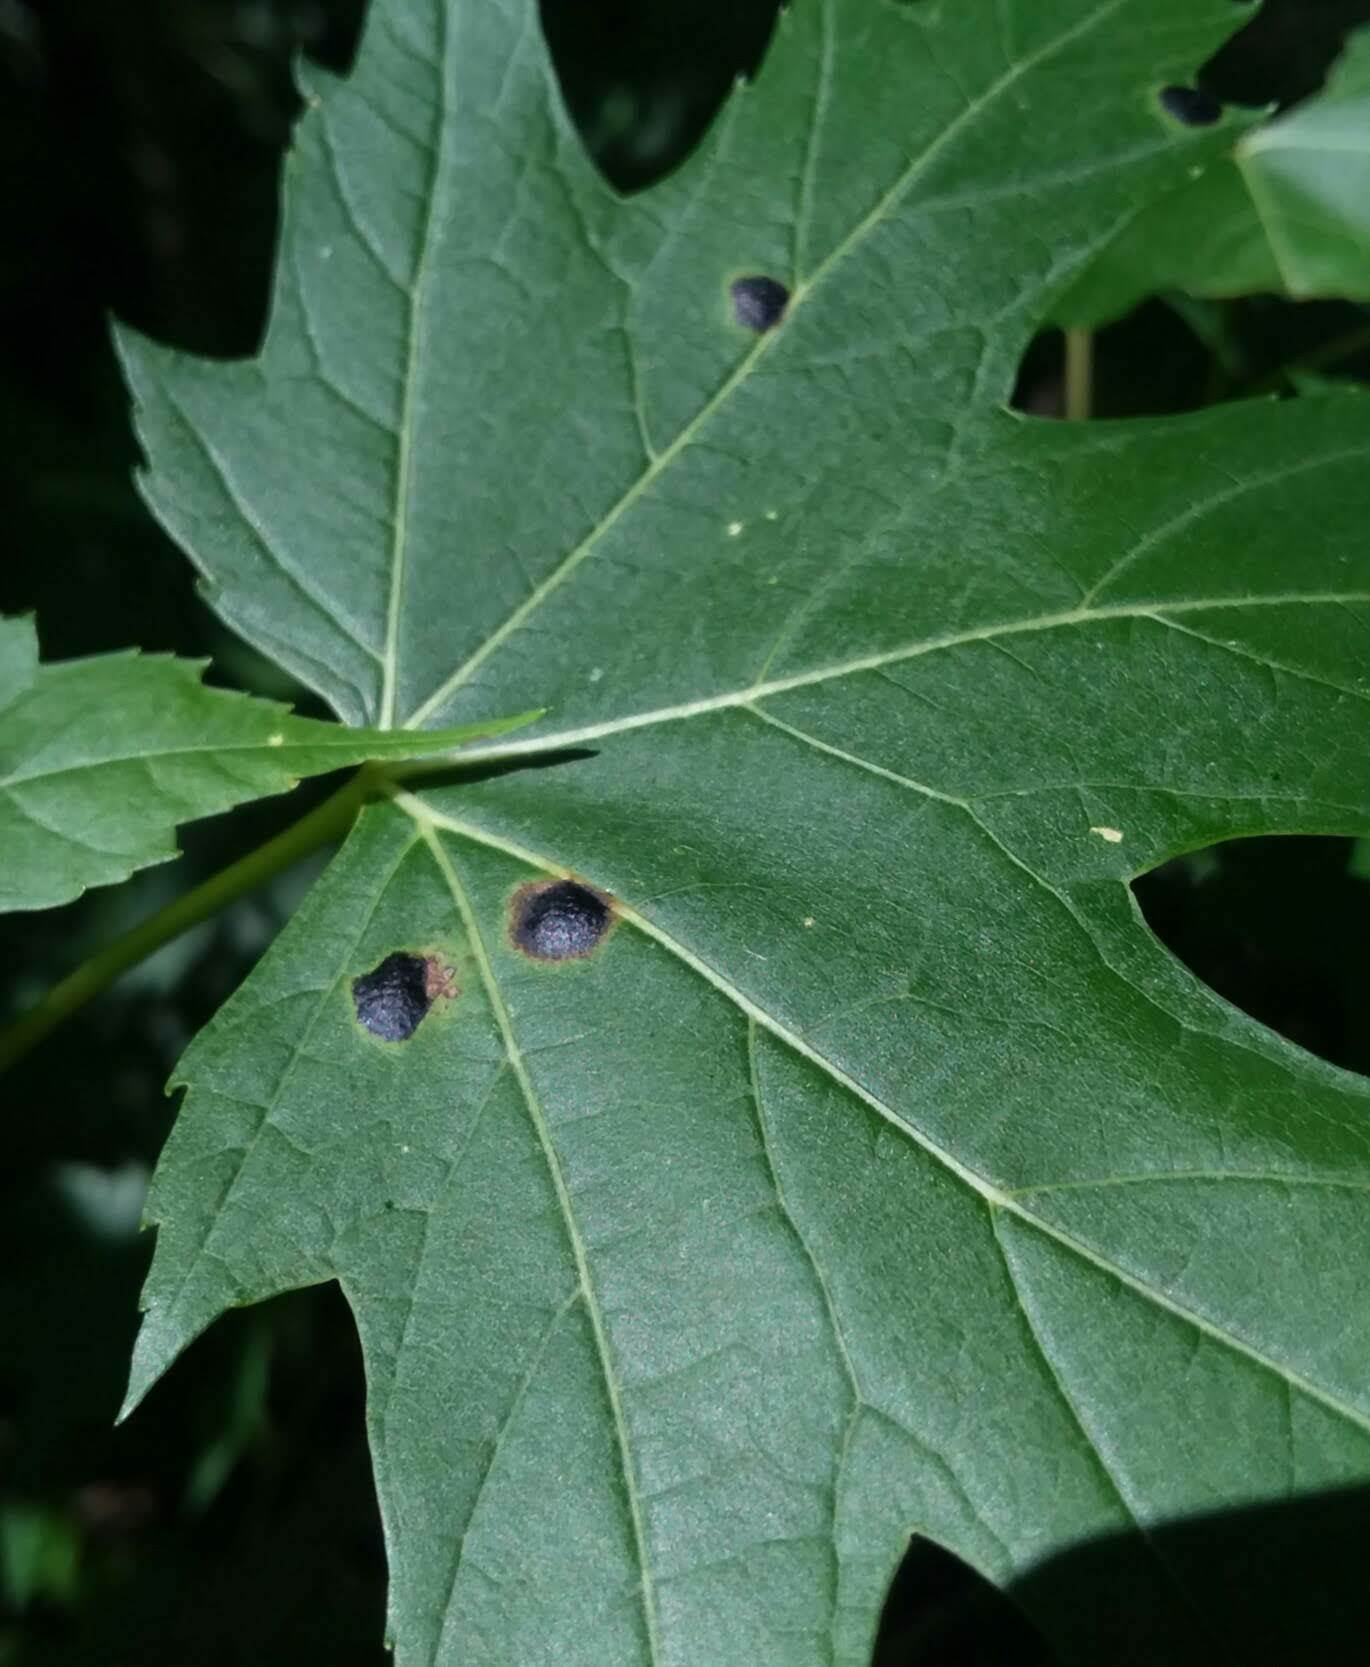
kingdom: Fungi
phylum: Ascomycota
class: Leotiomycetes
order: Rhytismatales
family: Rhytismataceae
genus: Rhytisma
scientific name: Rhytisma americanum
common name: American tar spot
